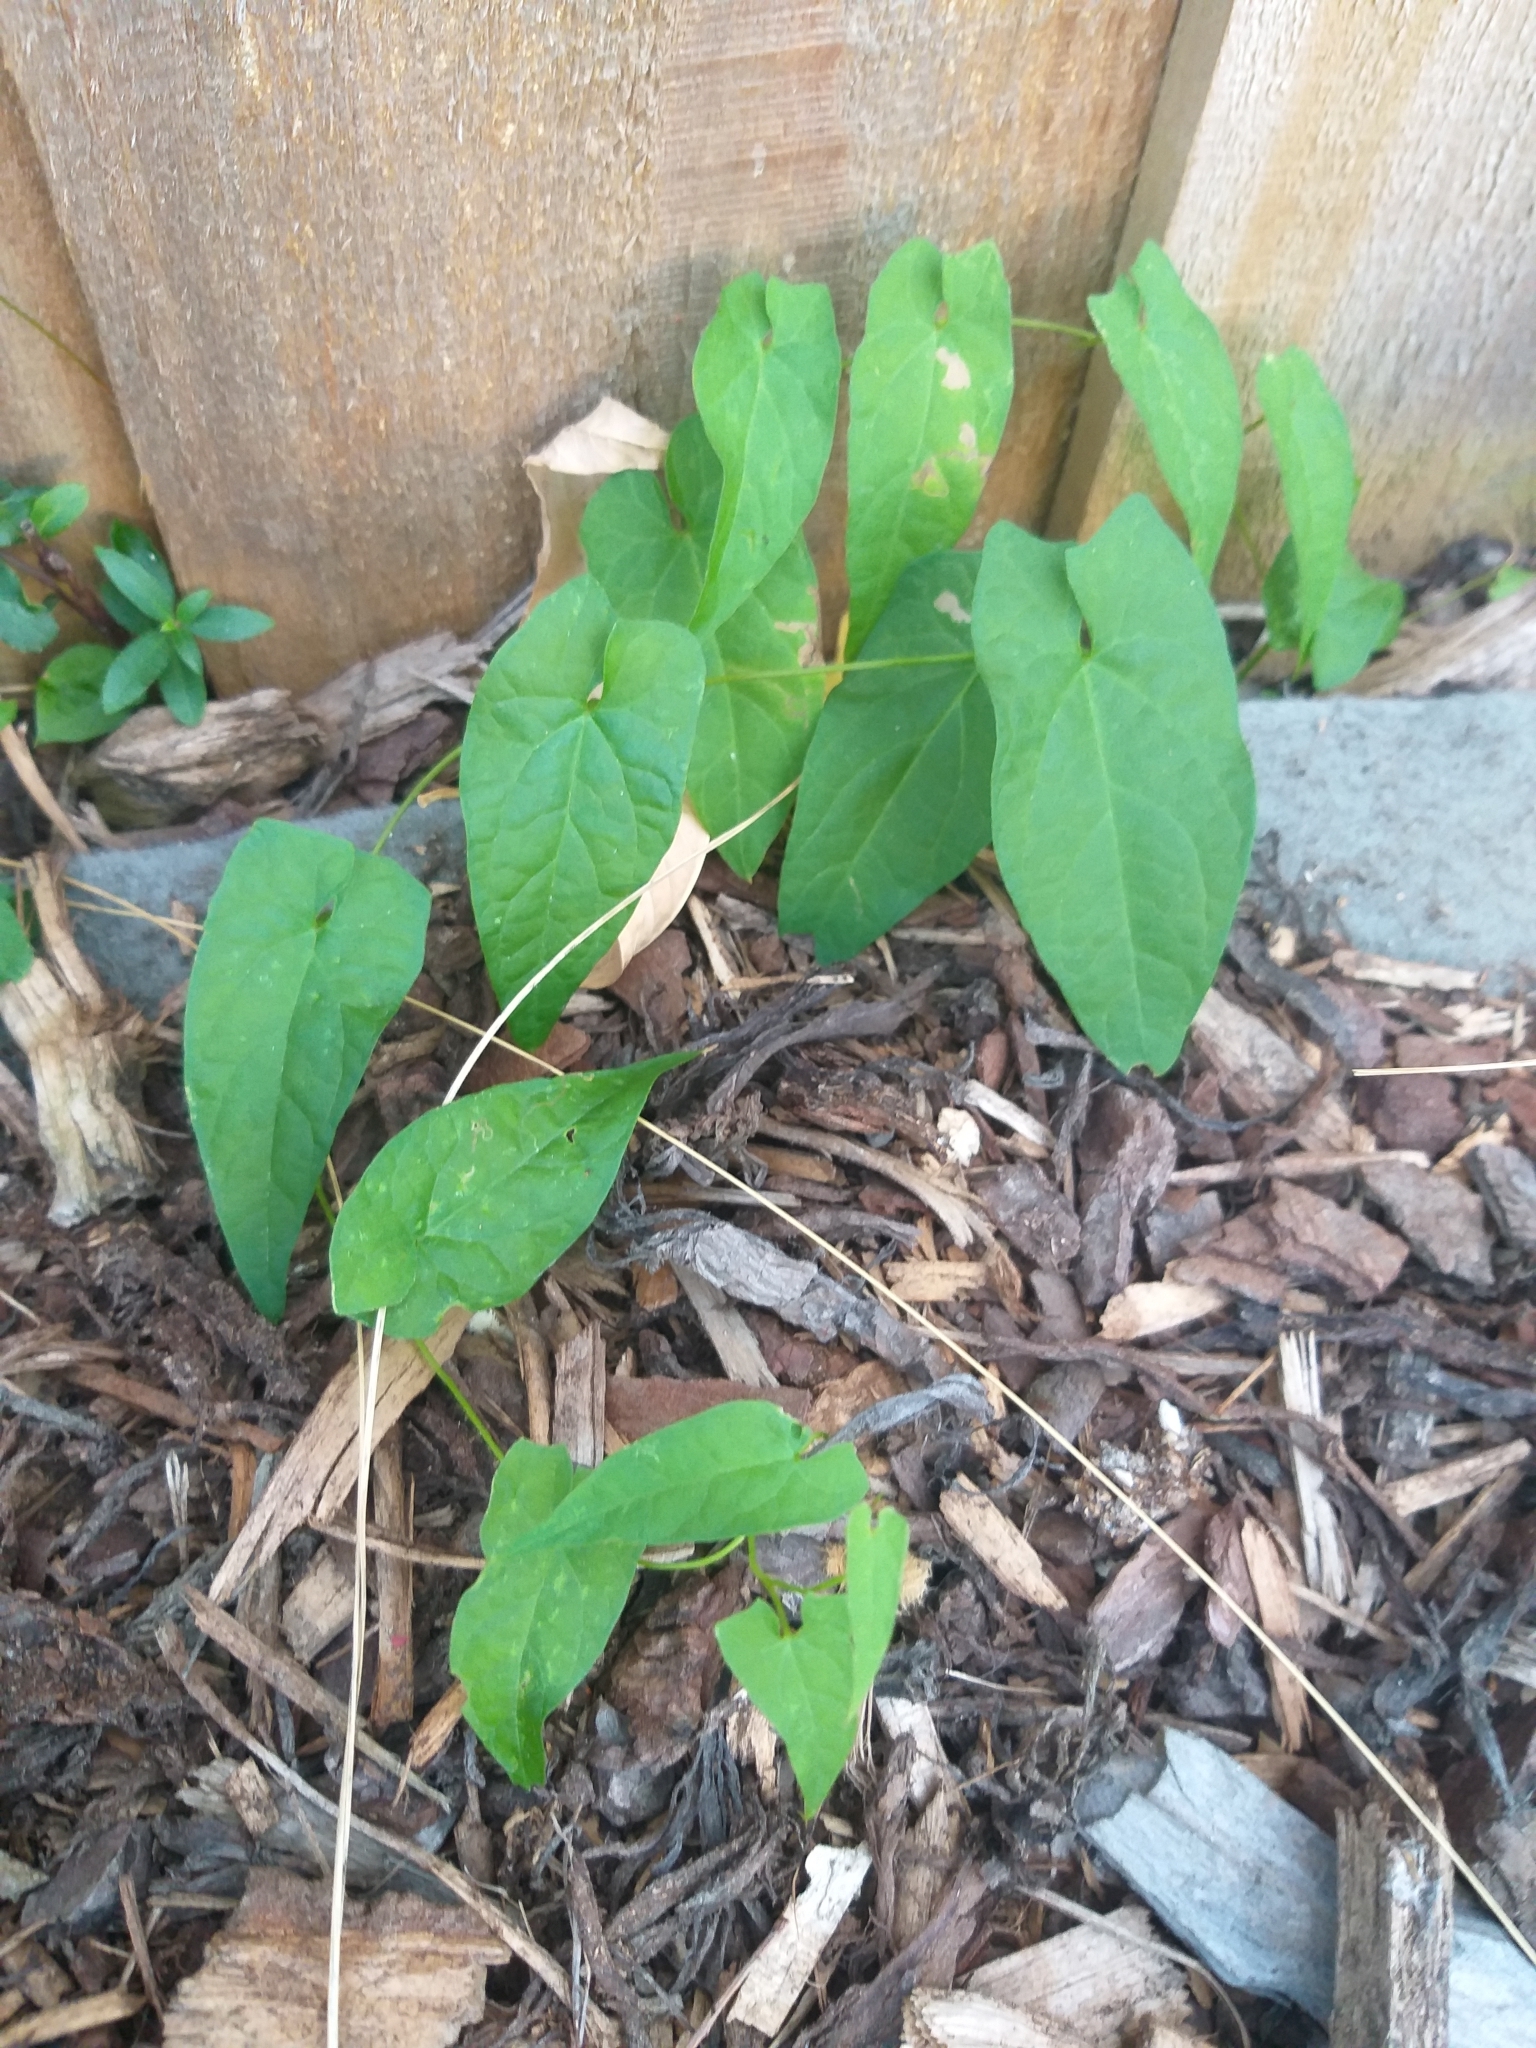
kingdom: Plantae
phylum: Tracheophyta
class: Magnoliopsida
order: Solanales
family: Convolvulaceae
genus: Calystegia
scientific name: Calystegia silvatica
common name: Large bindweed
